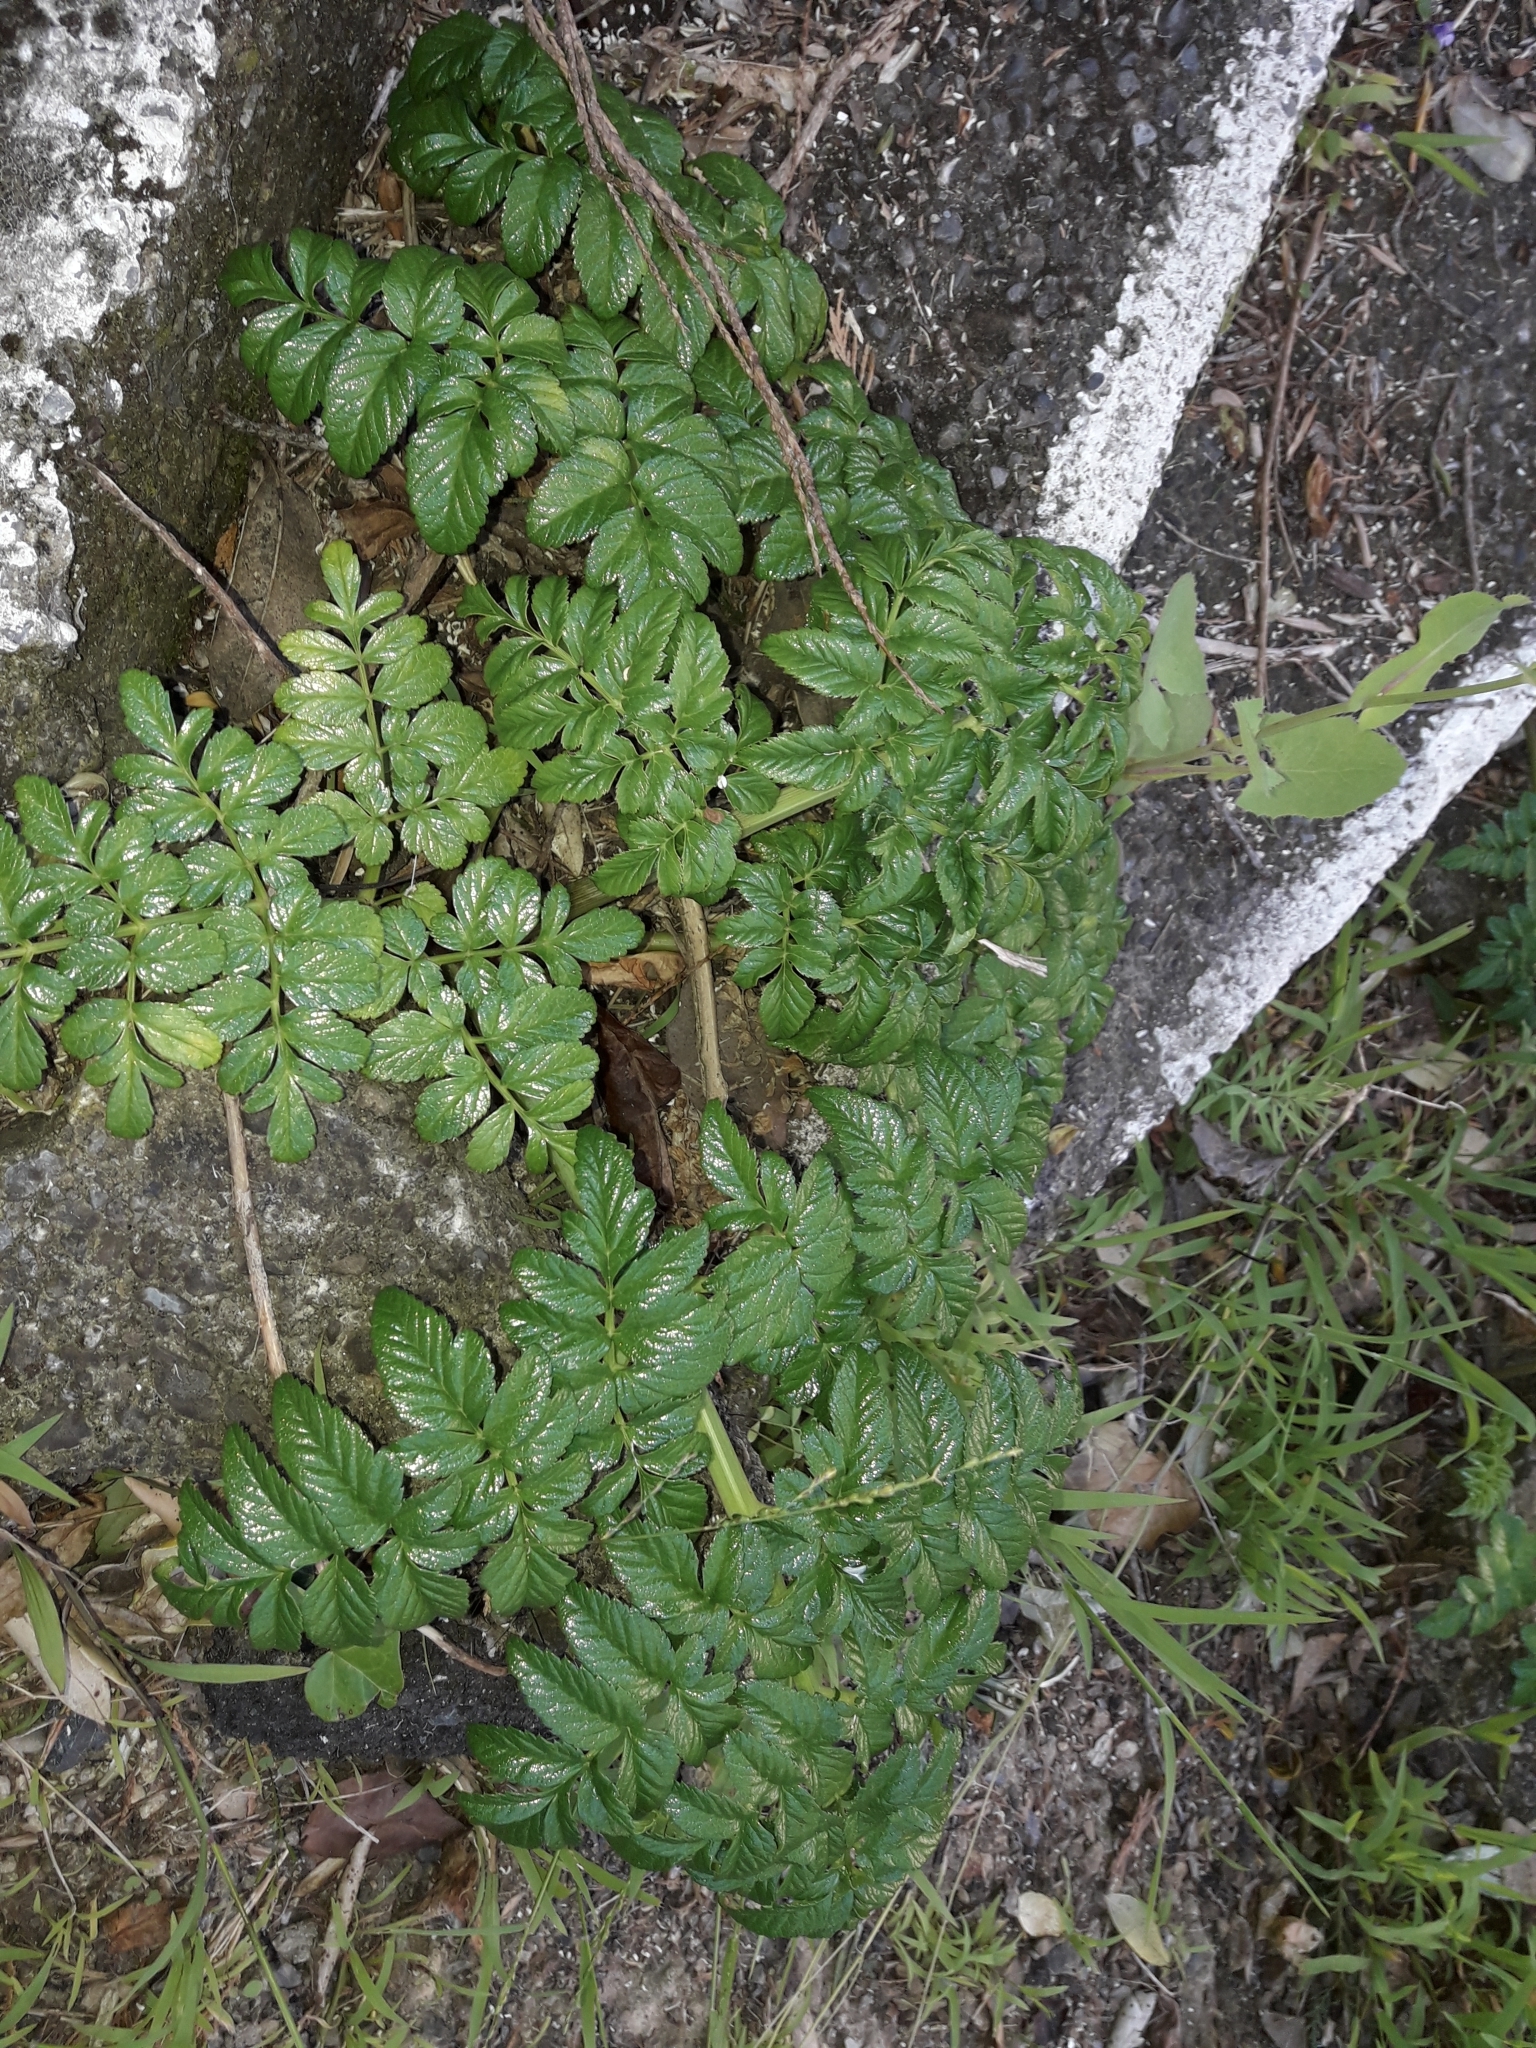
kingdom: Plantae
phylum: Tracheophyta
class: Magnoliopsida
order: Apiales
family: Apiaceae
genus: Angelica
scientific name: Angelica pachycarpa
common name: Portuguese angelica
